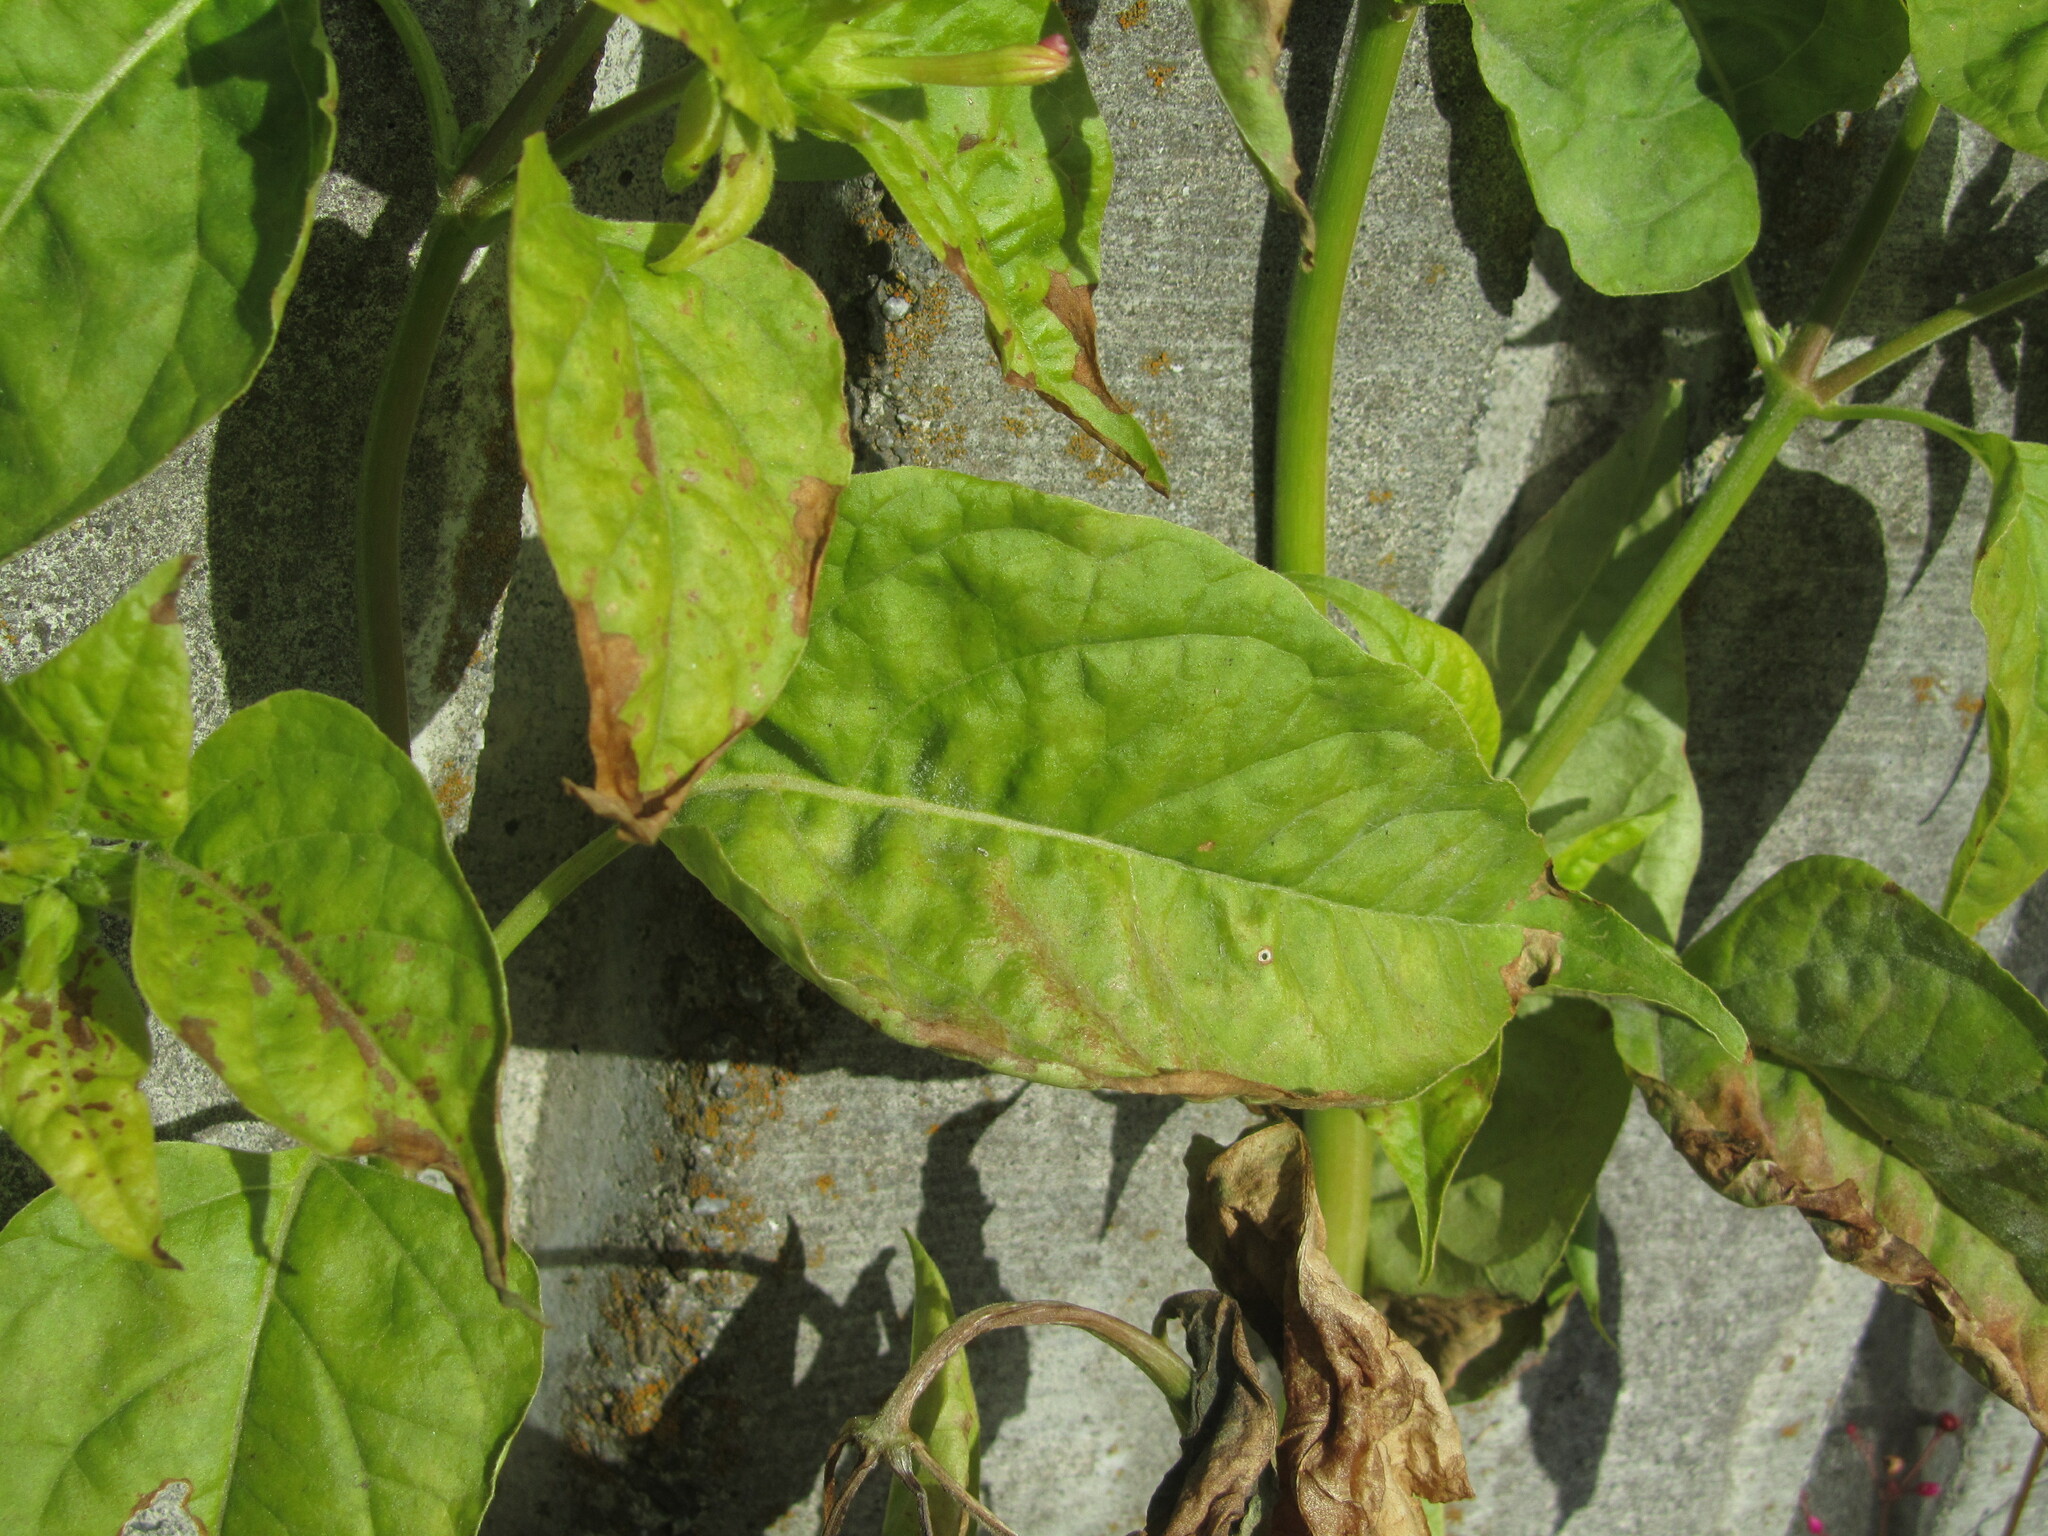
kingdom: Plantae
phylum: Tracheophyta
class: Magnoliopsida
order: Caryophyllales
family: Nyctaginaceae
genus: Mirabilis
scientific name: Mirabilis jalapa
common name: Marvel-of-peru
